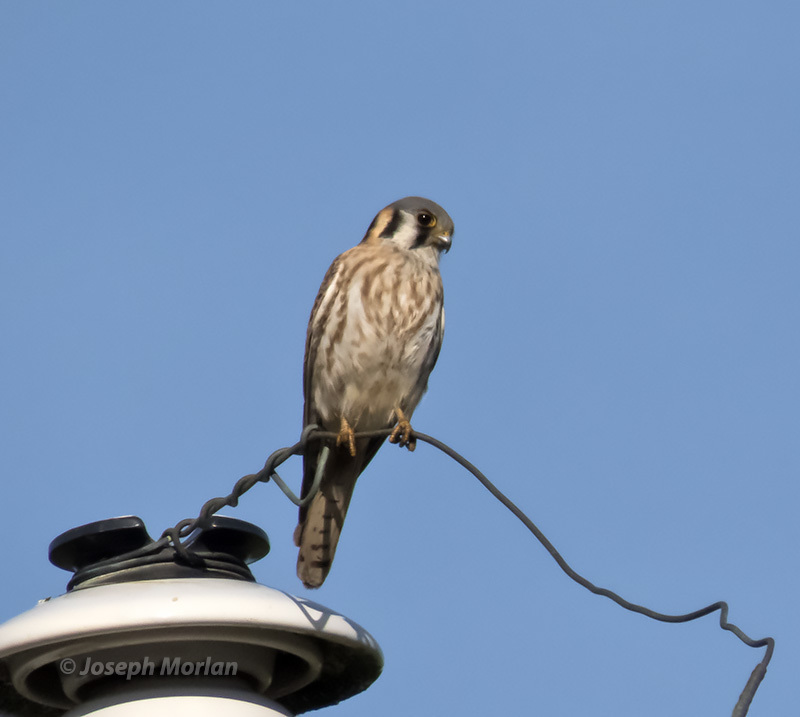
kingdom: Animalia
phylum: Chordata
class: Aves
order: Falconiformes
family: Falconidae
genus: Falco
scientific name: Falco sparverius
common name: American kestrel
